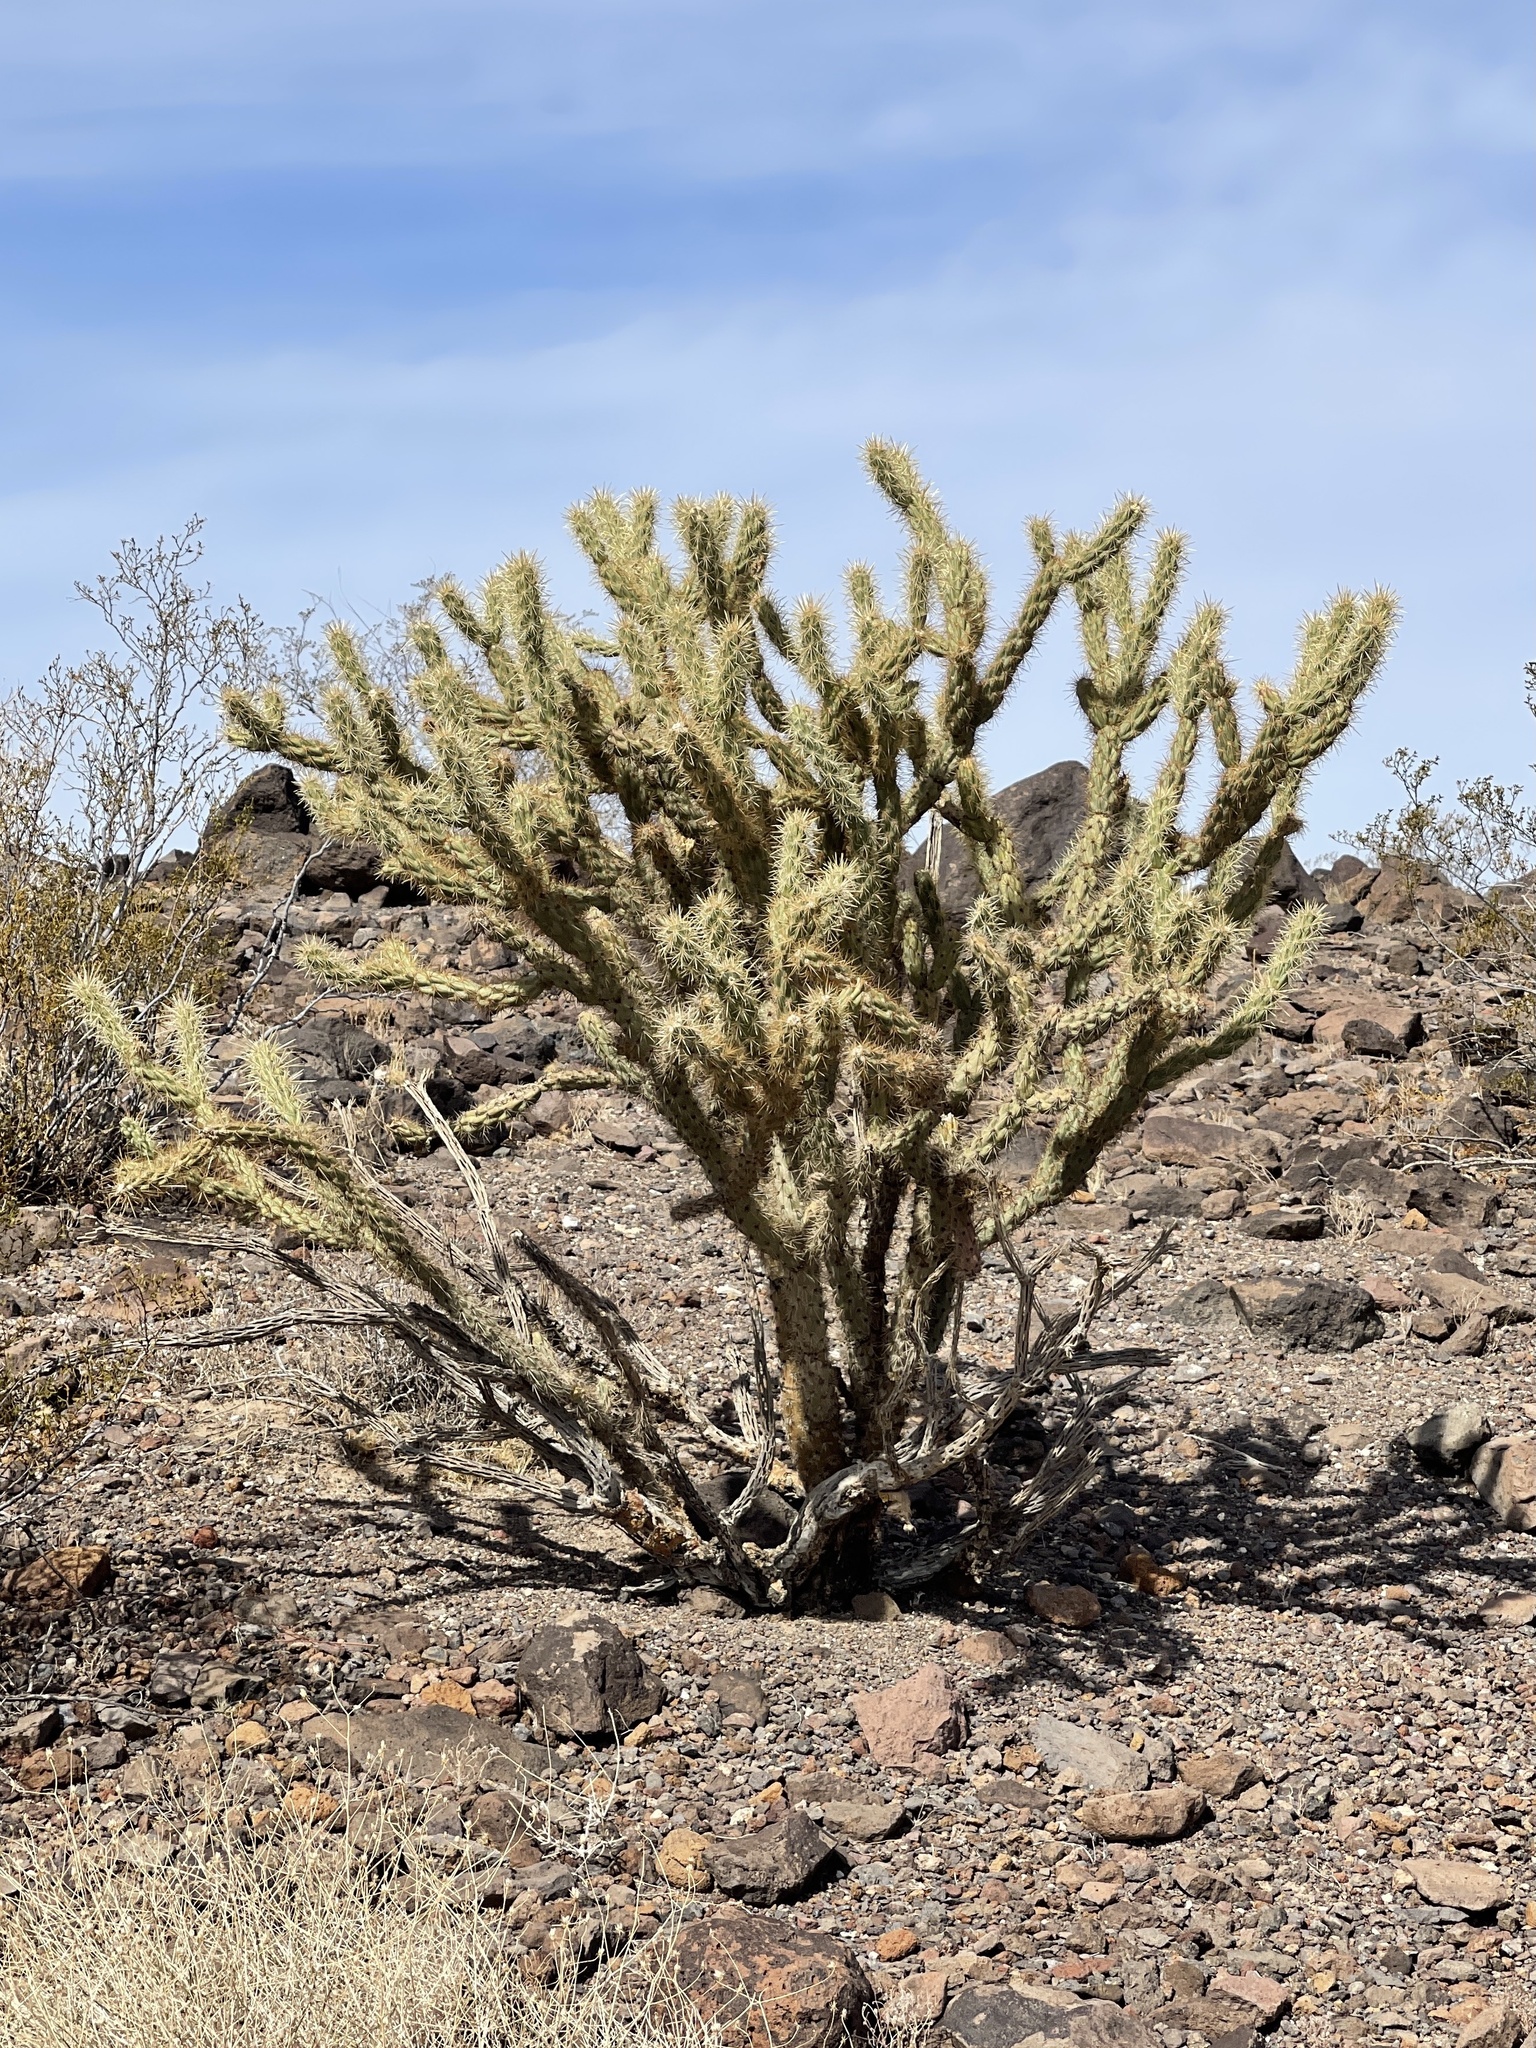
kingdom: Plantae
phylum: Tracheophyta
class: Magnoliopsida
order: Caryophyllales
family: Cactaceae
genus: Cylindropuntia
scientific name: Cylindropuntia acanthocarpa
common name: Buckhorn cholla
